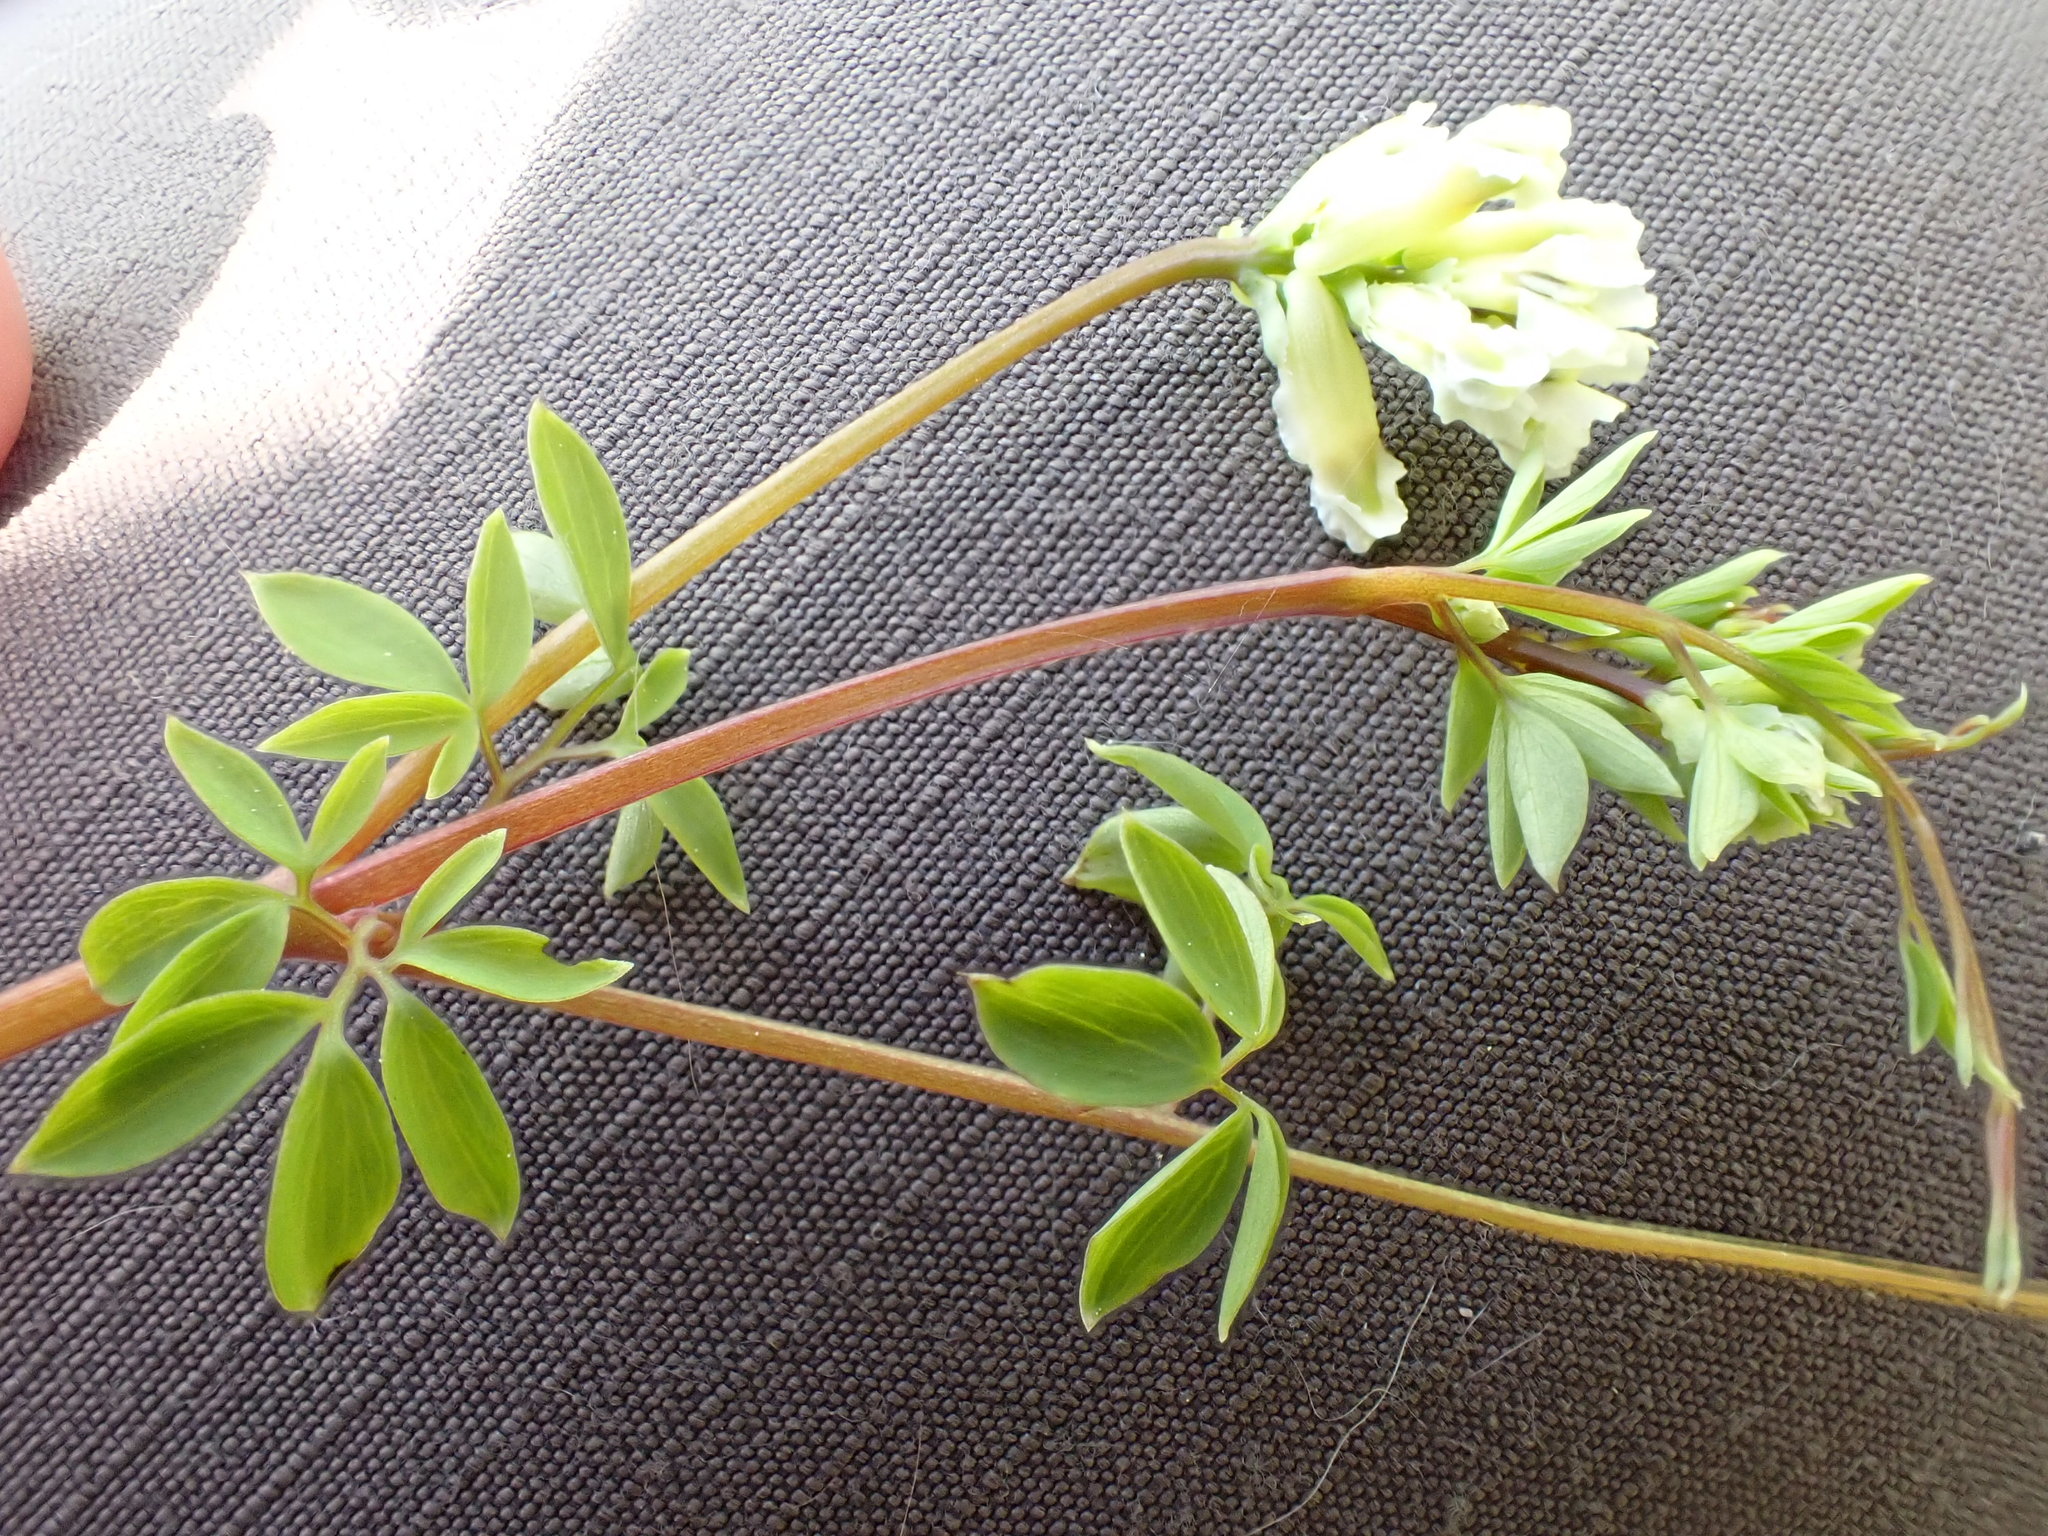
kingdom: Plantae
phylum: Tracheophyta
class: Magnoliopsida
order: Ranunculales
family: Papaveraceae
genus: Ceratocapnos
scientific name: Ceratocapnos claviculata
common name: Climbing corydalis
